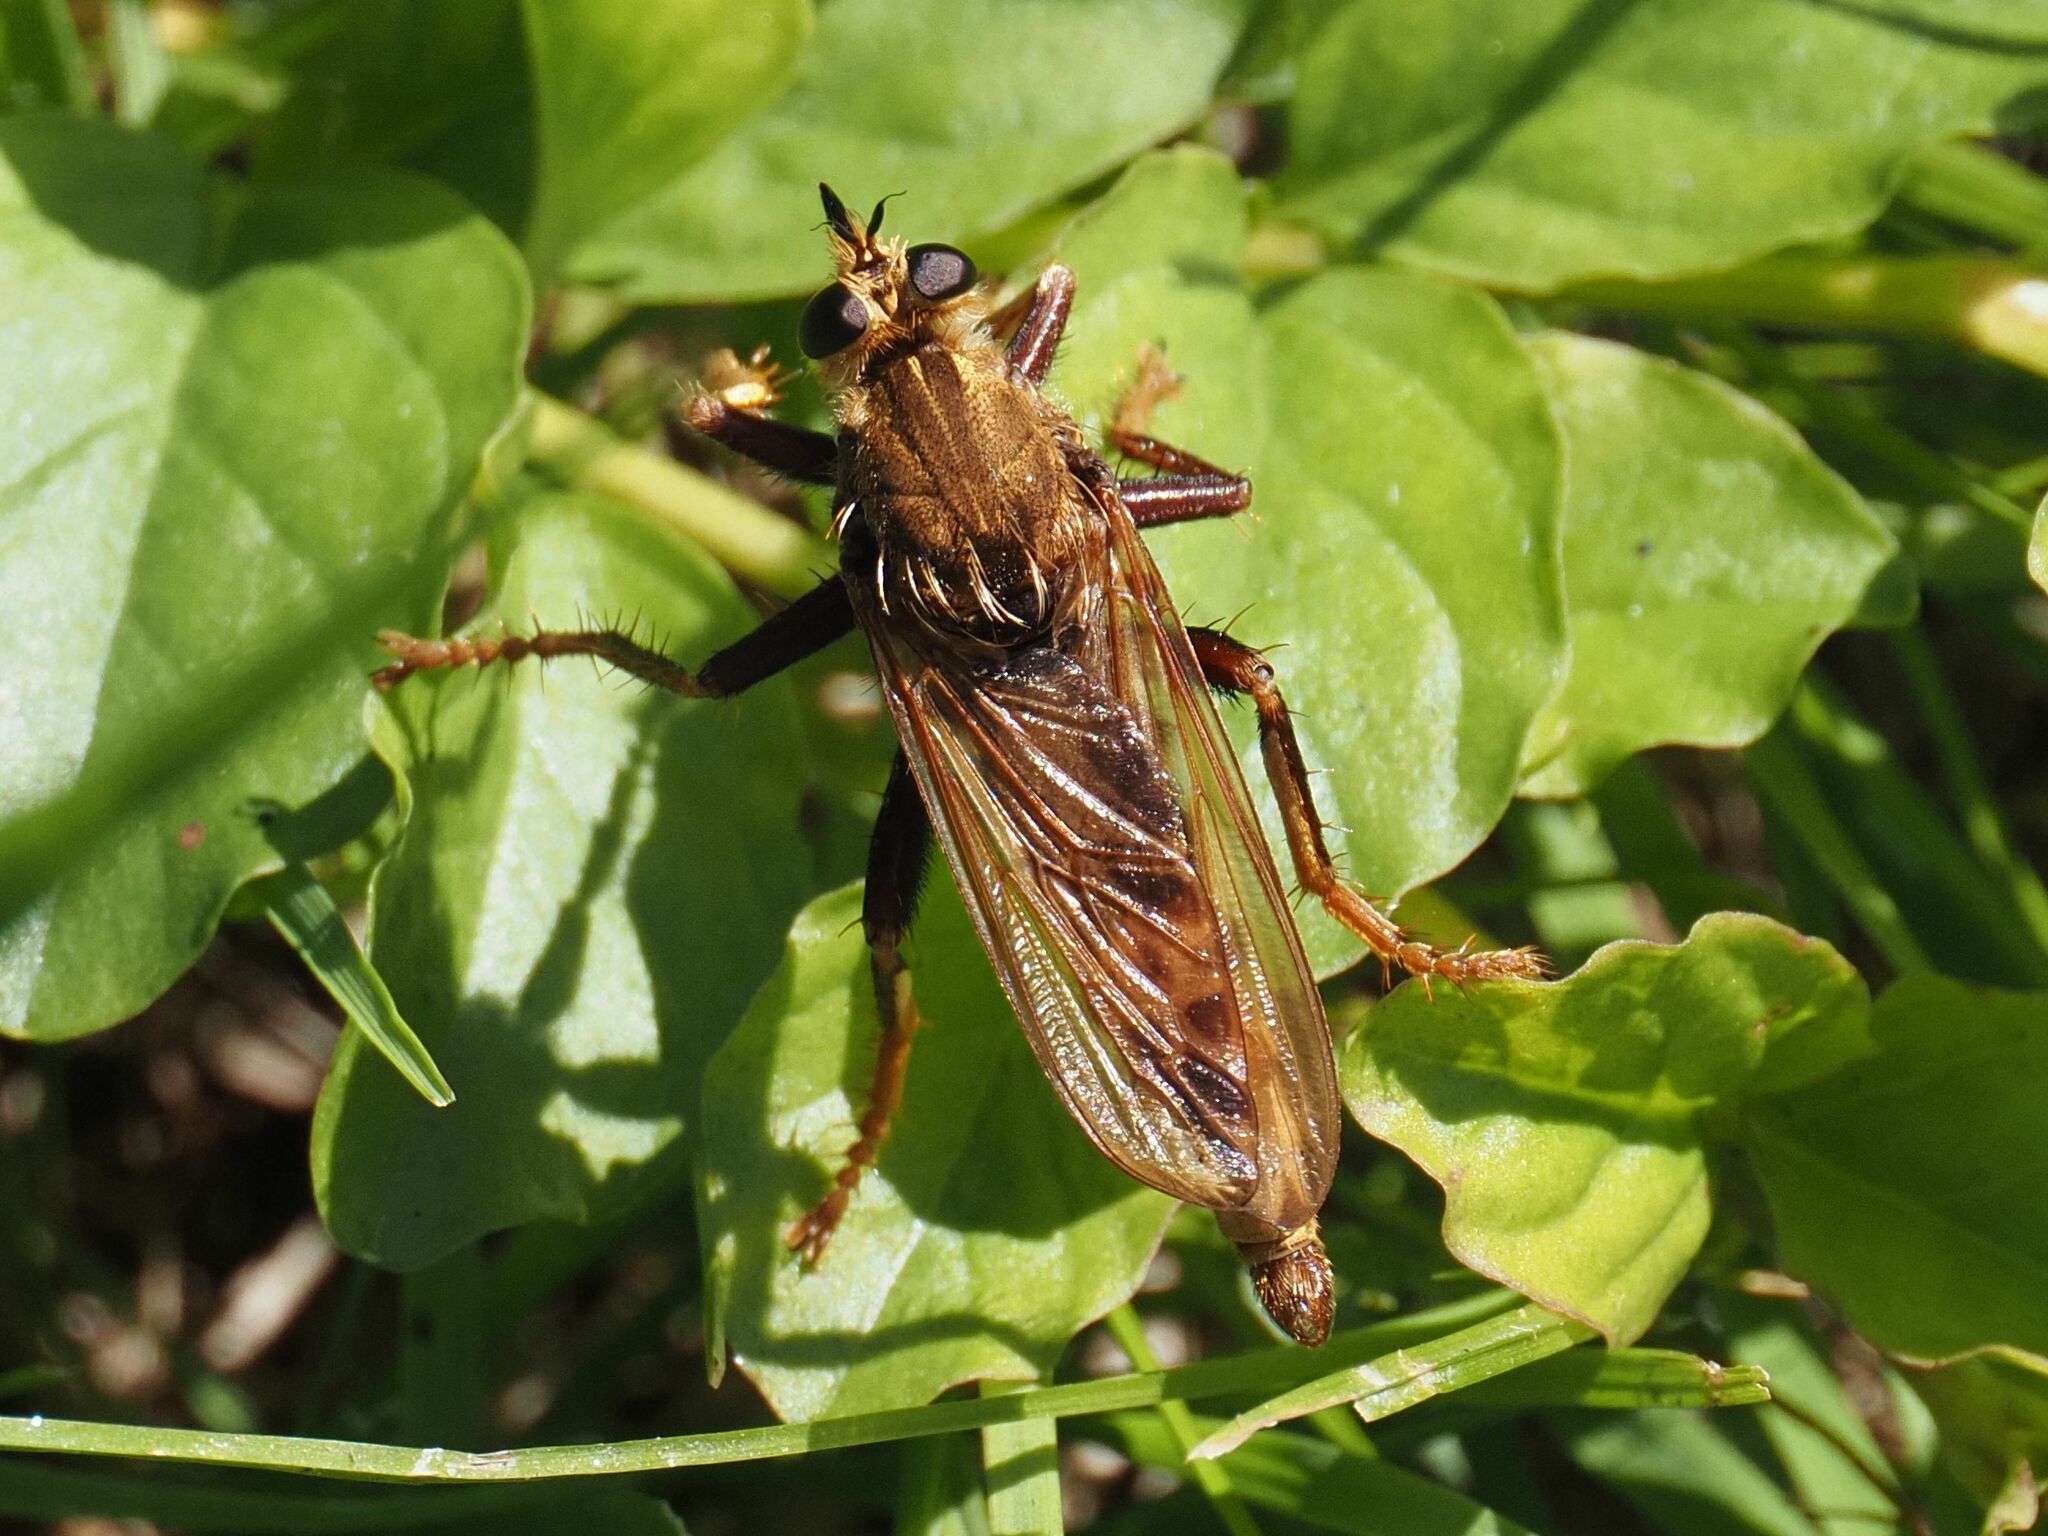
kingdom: Animalia
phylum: Arthropoda
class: Insecta
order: Diptera
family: Asilidae
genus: Asilus
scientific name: Asilus crabroniformis
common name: Hornet robberfly
